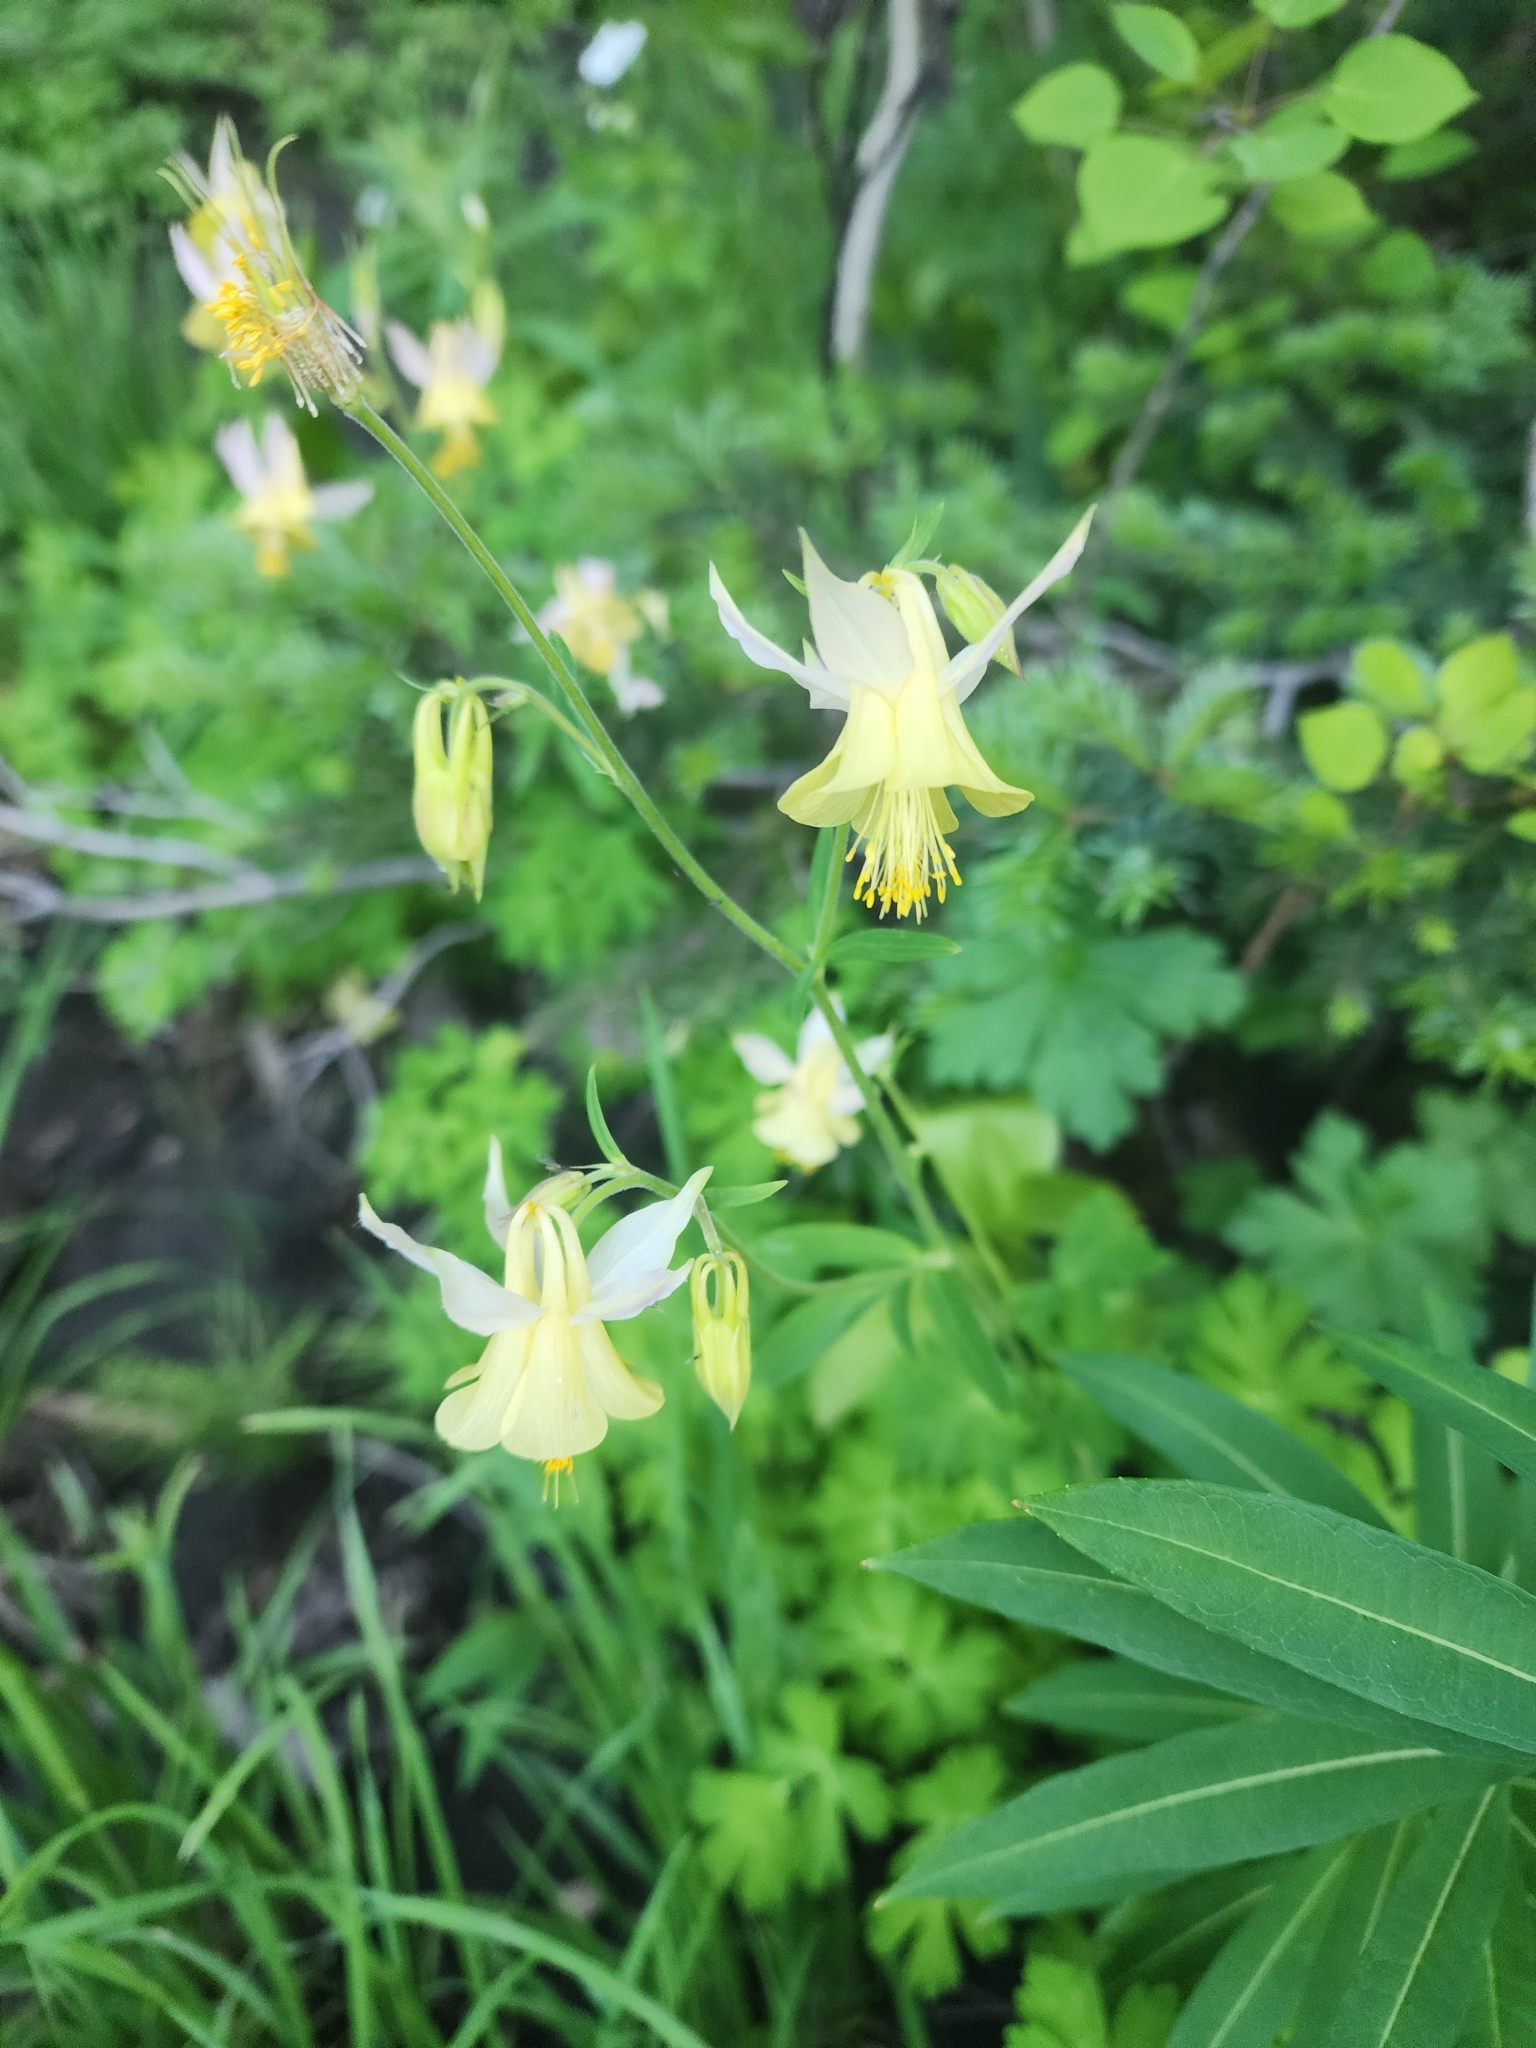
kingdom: Plantae
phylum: Tracheophyta
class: Magnoliopsida
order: Ranunculales
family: Ranunculaceae
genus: Aquilegia
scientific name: Aquilegia flavescens
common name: Yellow columbine
